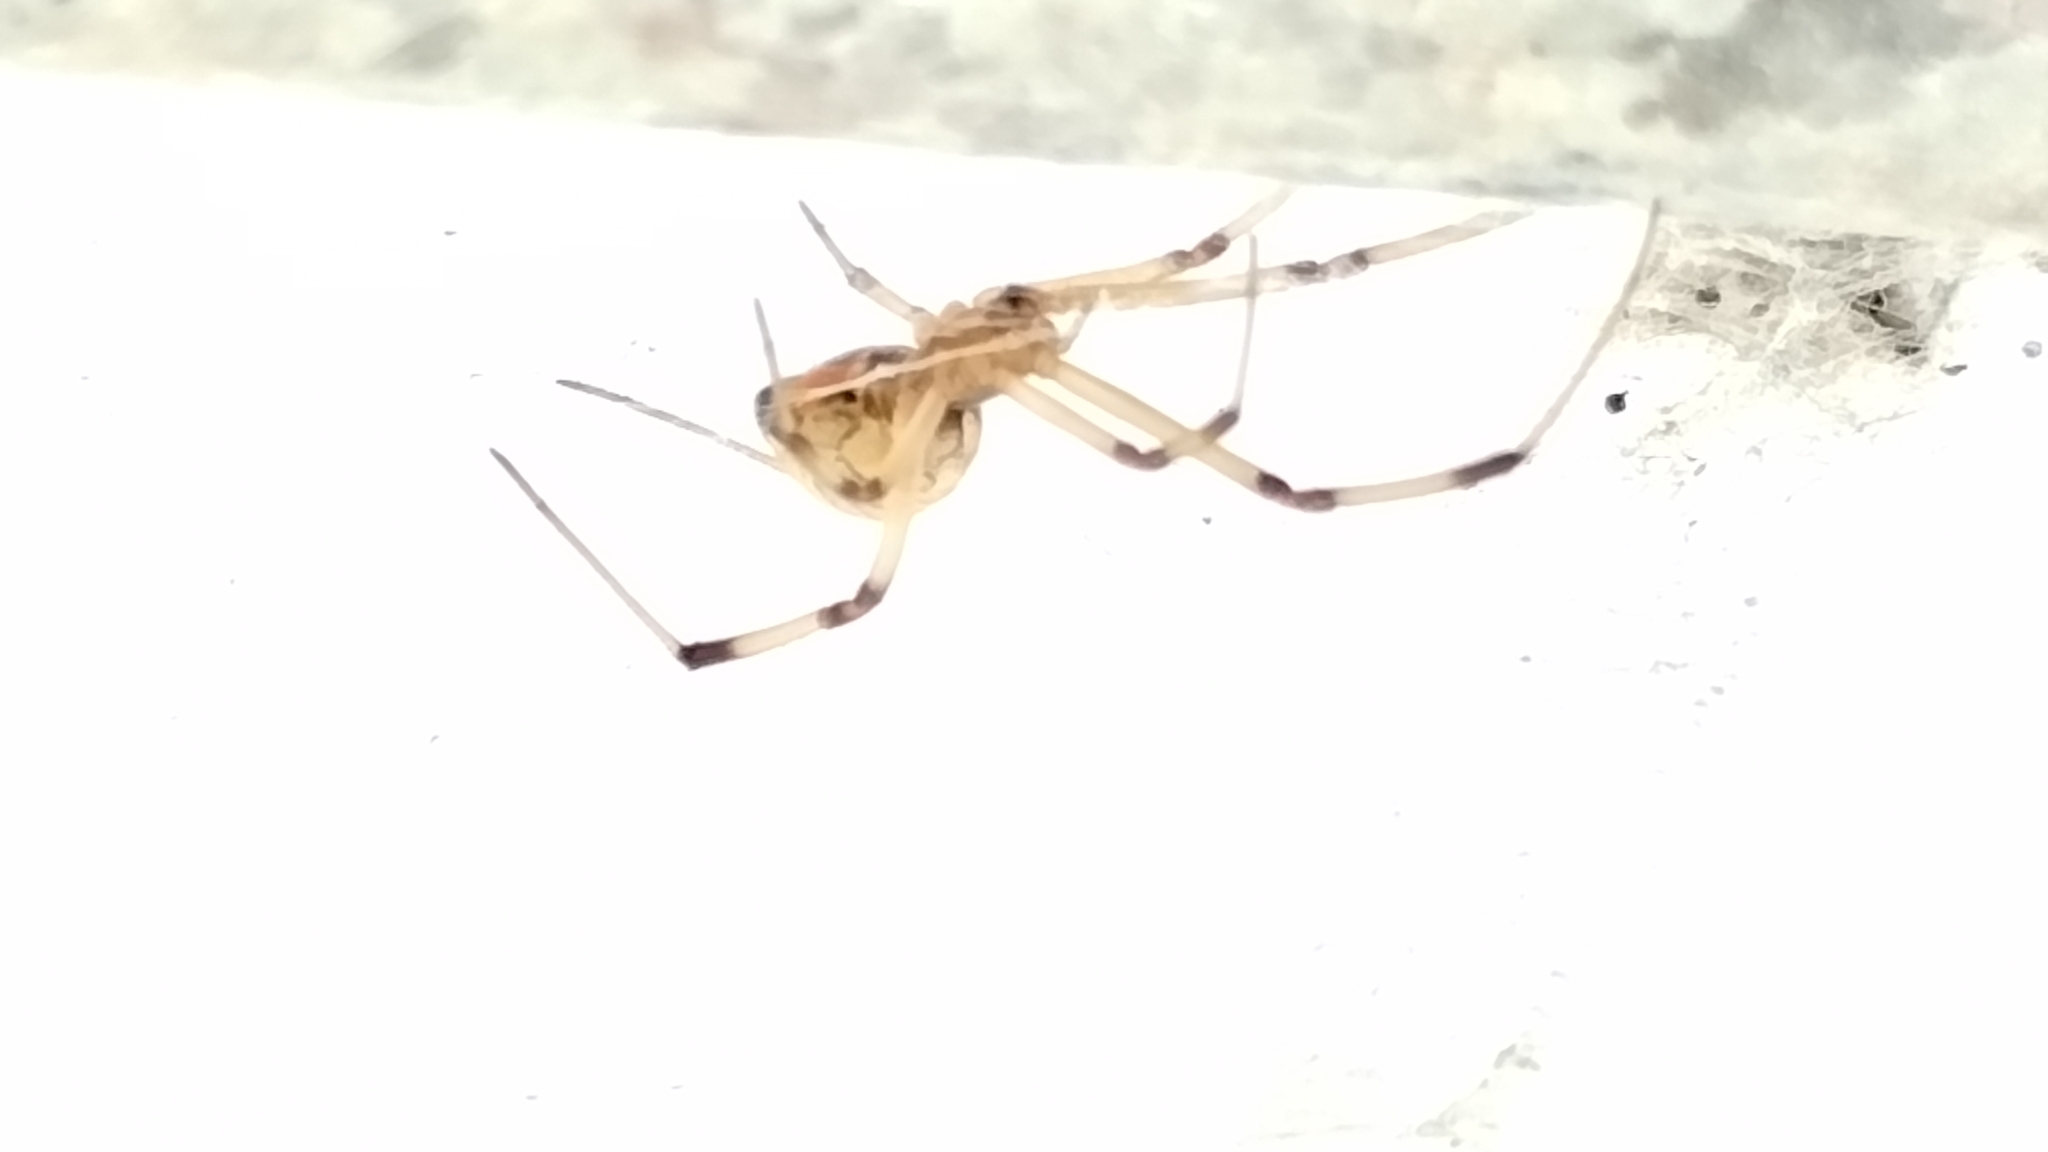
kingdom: Animalia
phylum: Arthropoda
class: Arachnida
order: Araneae
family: Theridiidae
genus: Latrodectus
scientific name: Latrodectus geometricus
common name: Brown widow spider
